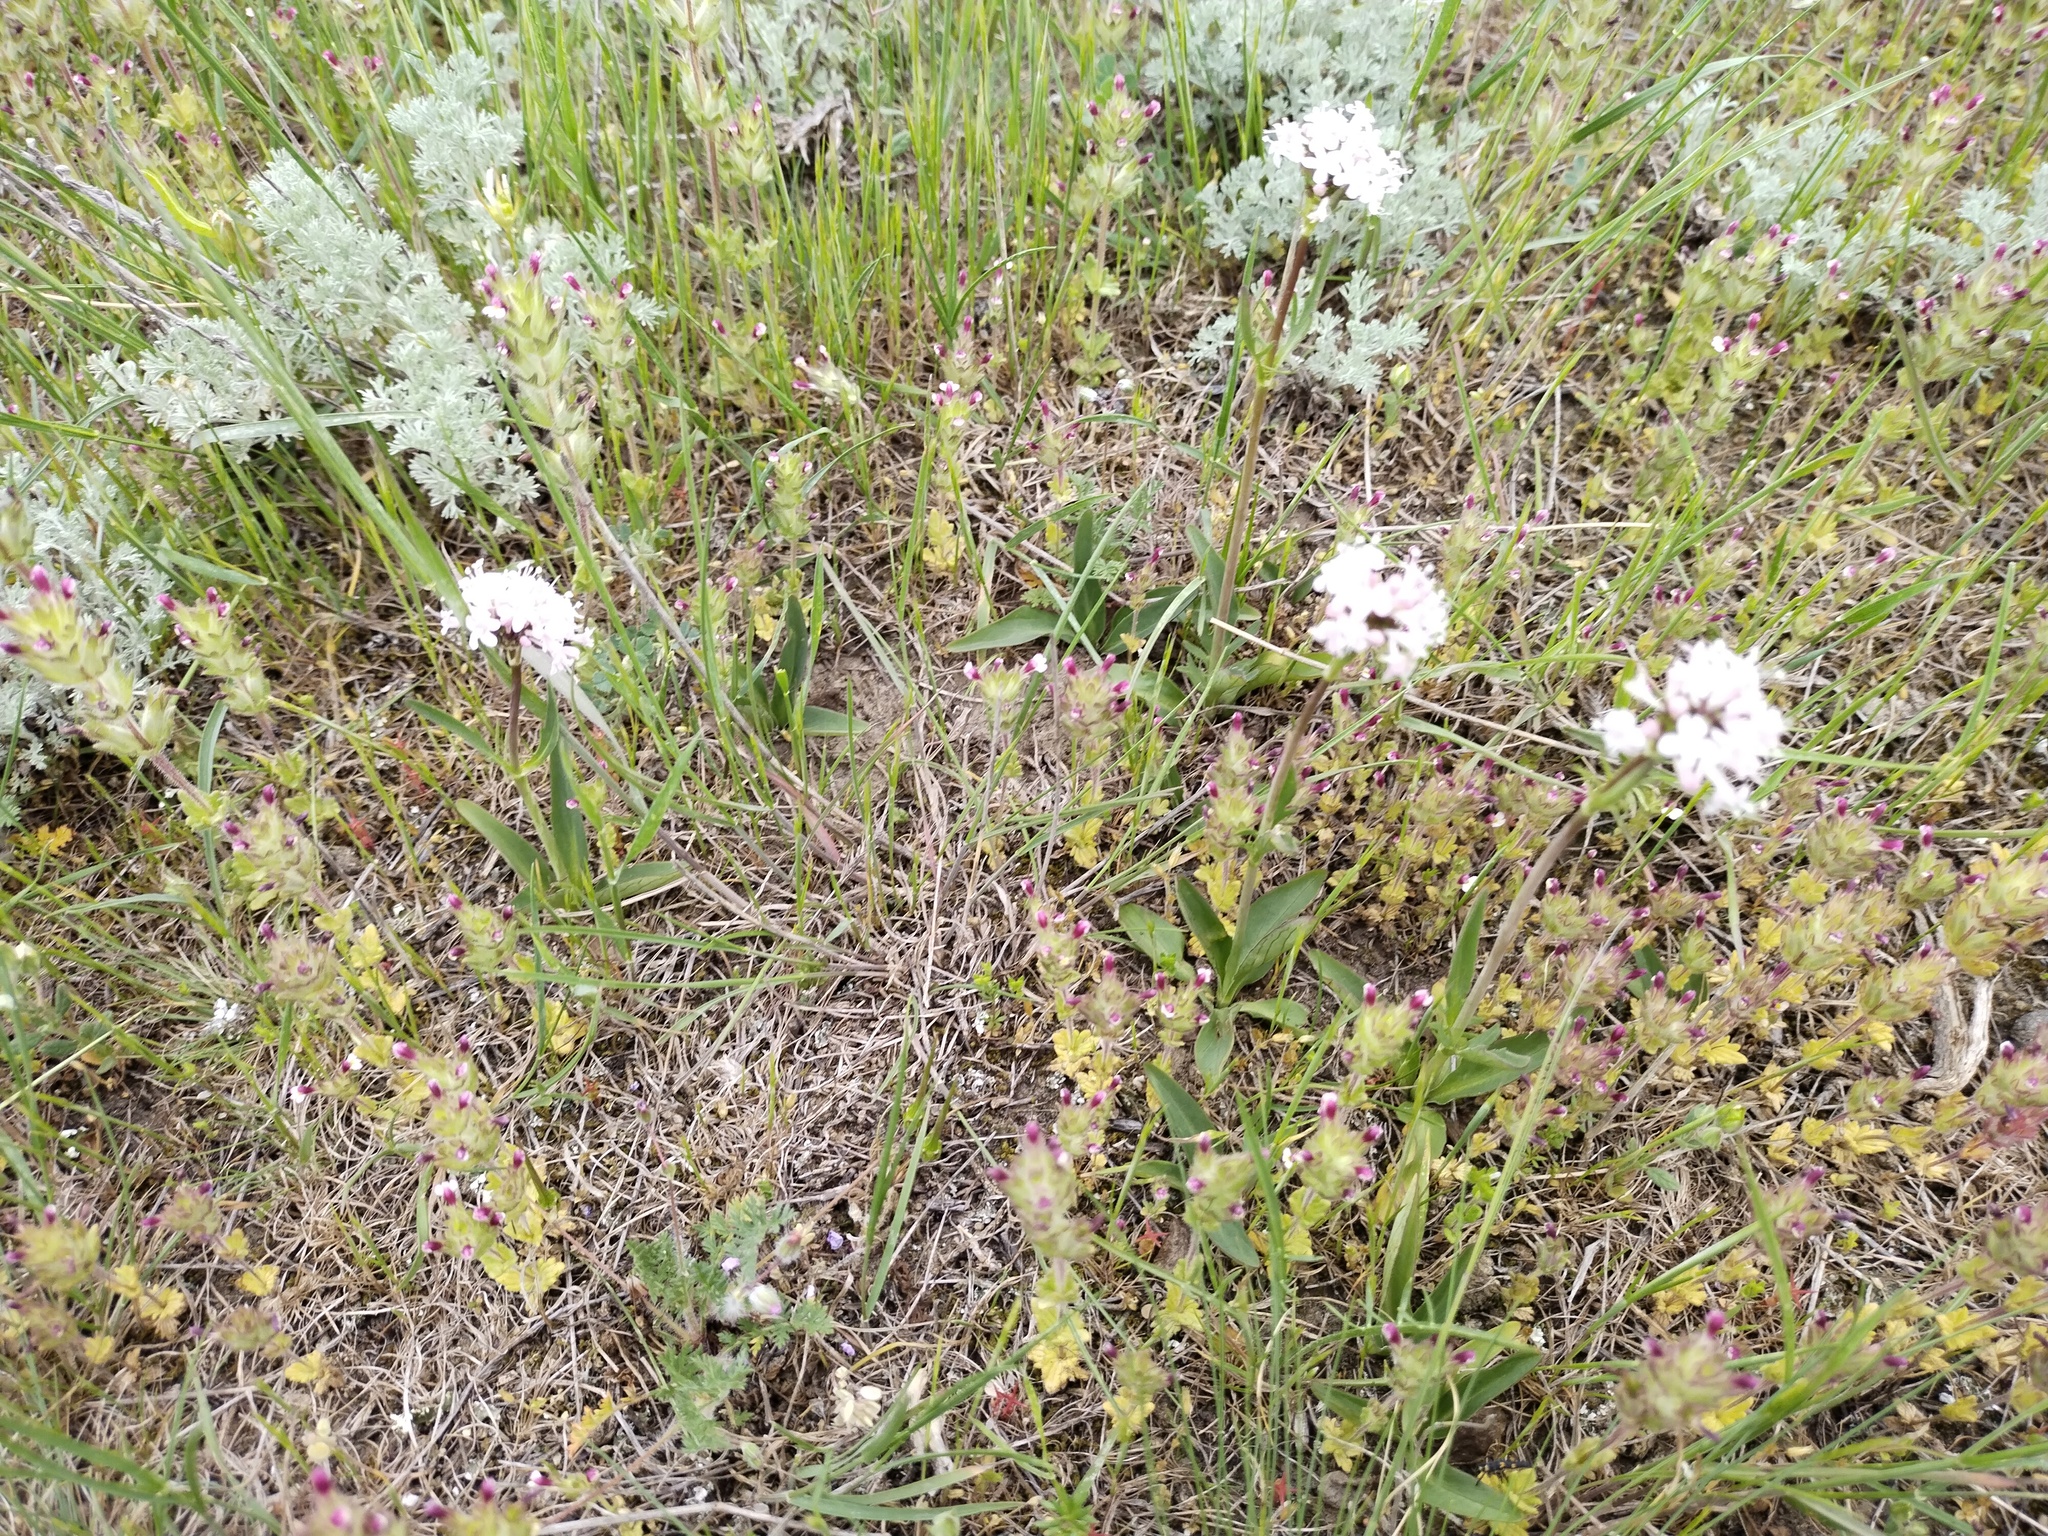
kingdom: Plantae
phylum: Tracheophyta
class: Magnoliopsida
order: Dipsacales
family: Caprifoliaceae
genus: Valeriana
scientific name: Valeriana tuberosa
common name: Tuberous valerian
